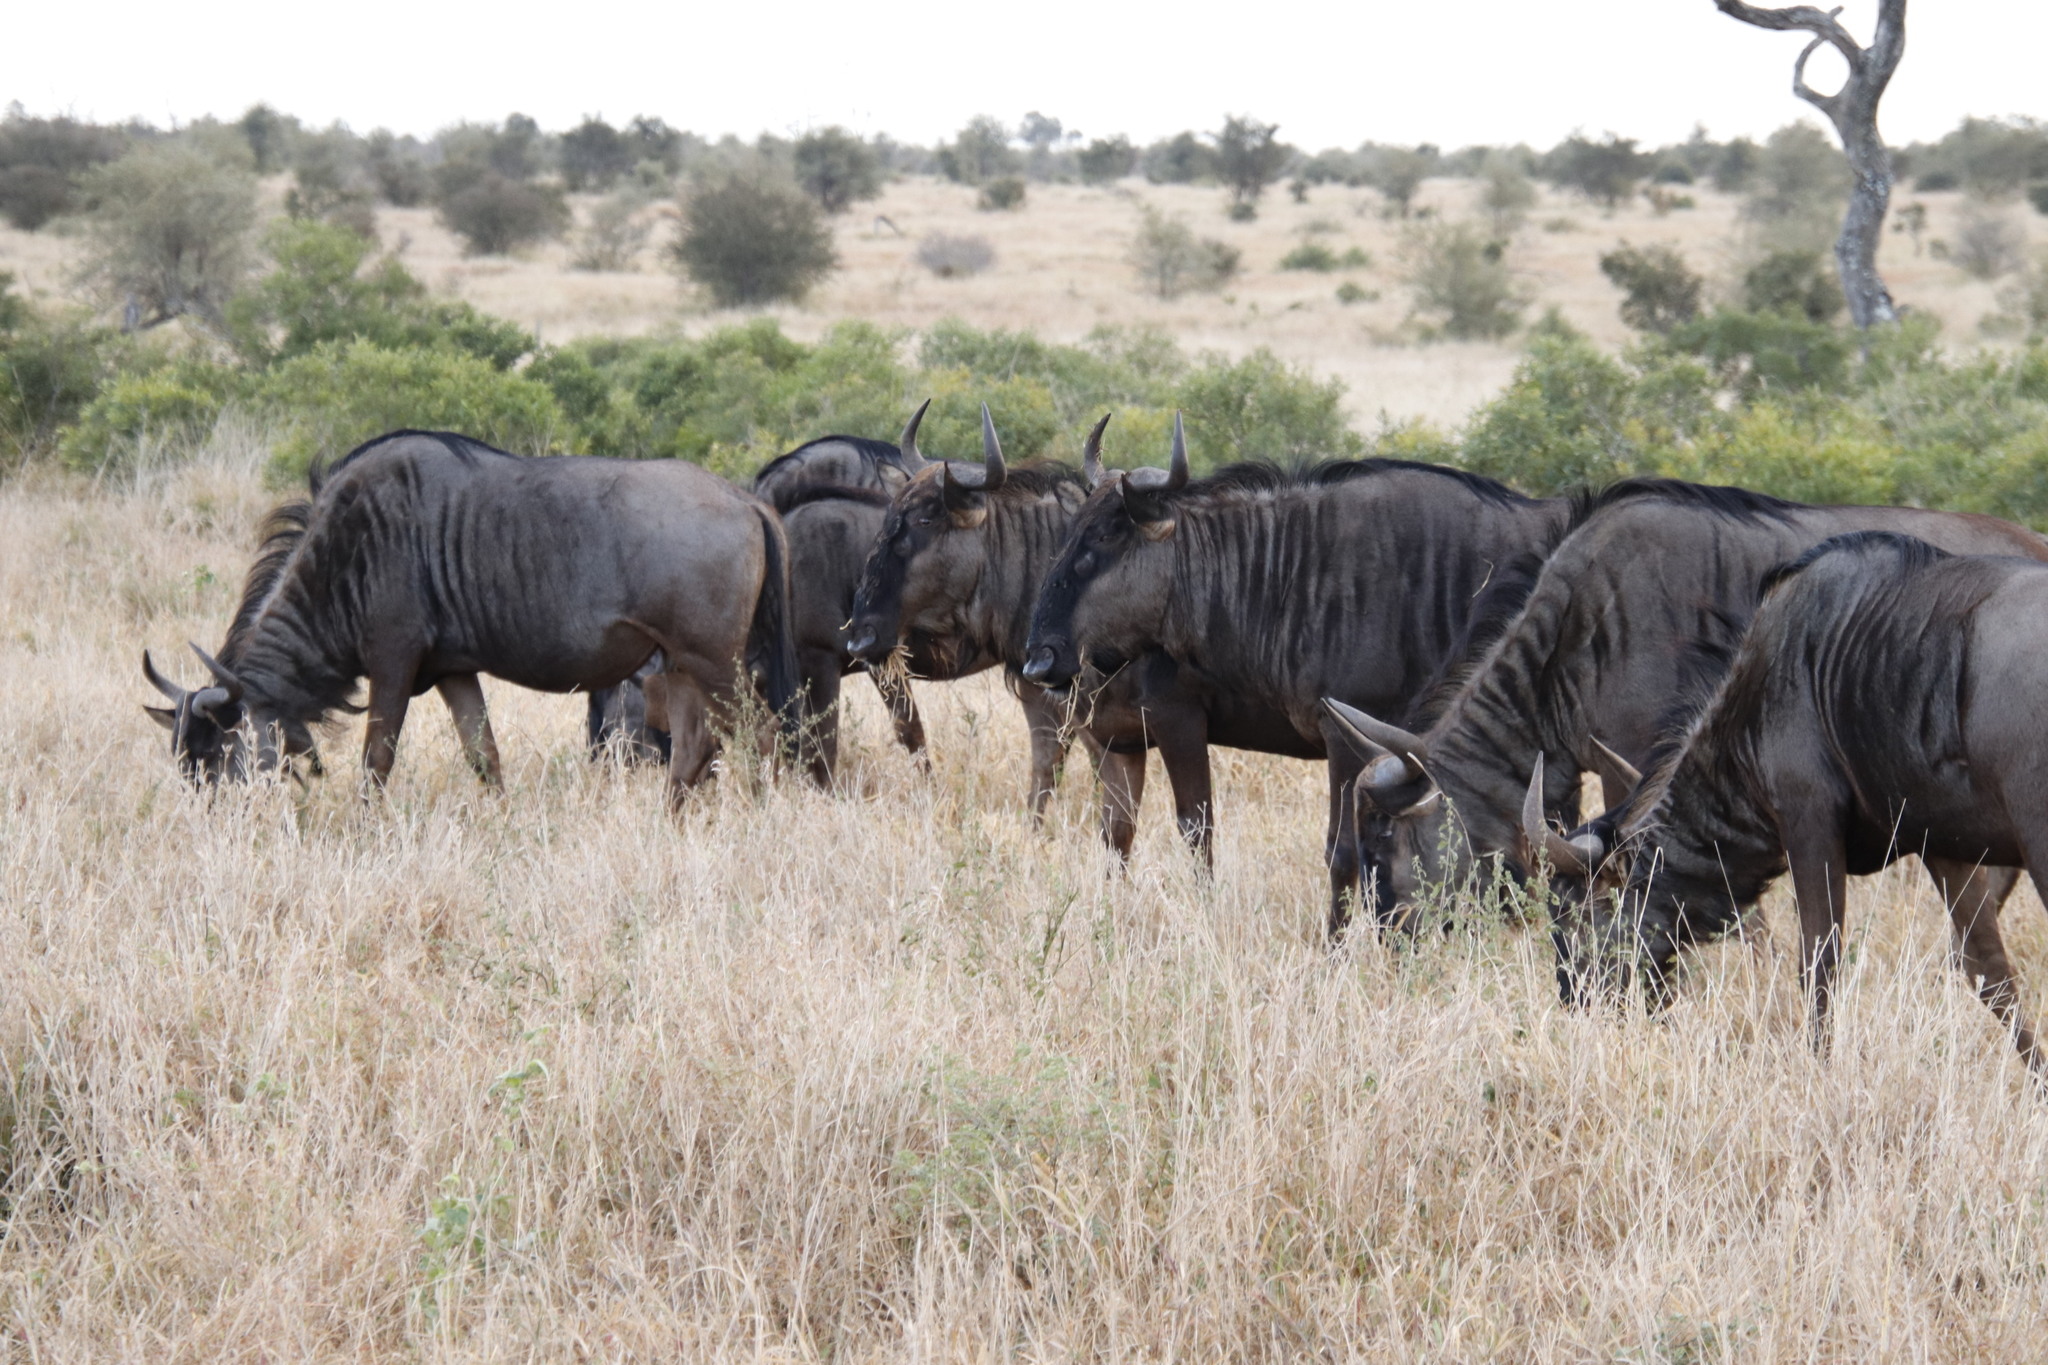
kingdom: Animalia
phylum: Chordata
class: Mammalia
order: Artiodactyla
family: Bovidae
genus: Connochaetes
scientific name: Connochaetes taurinus
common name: Blue wildebeest
